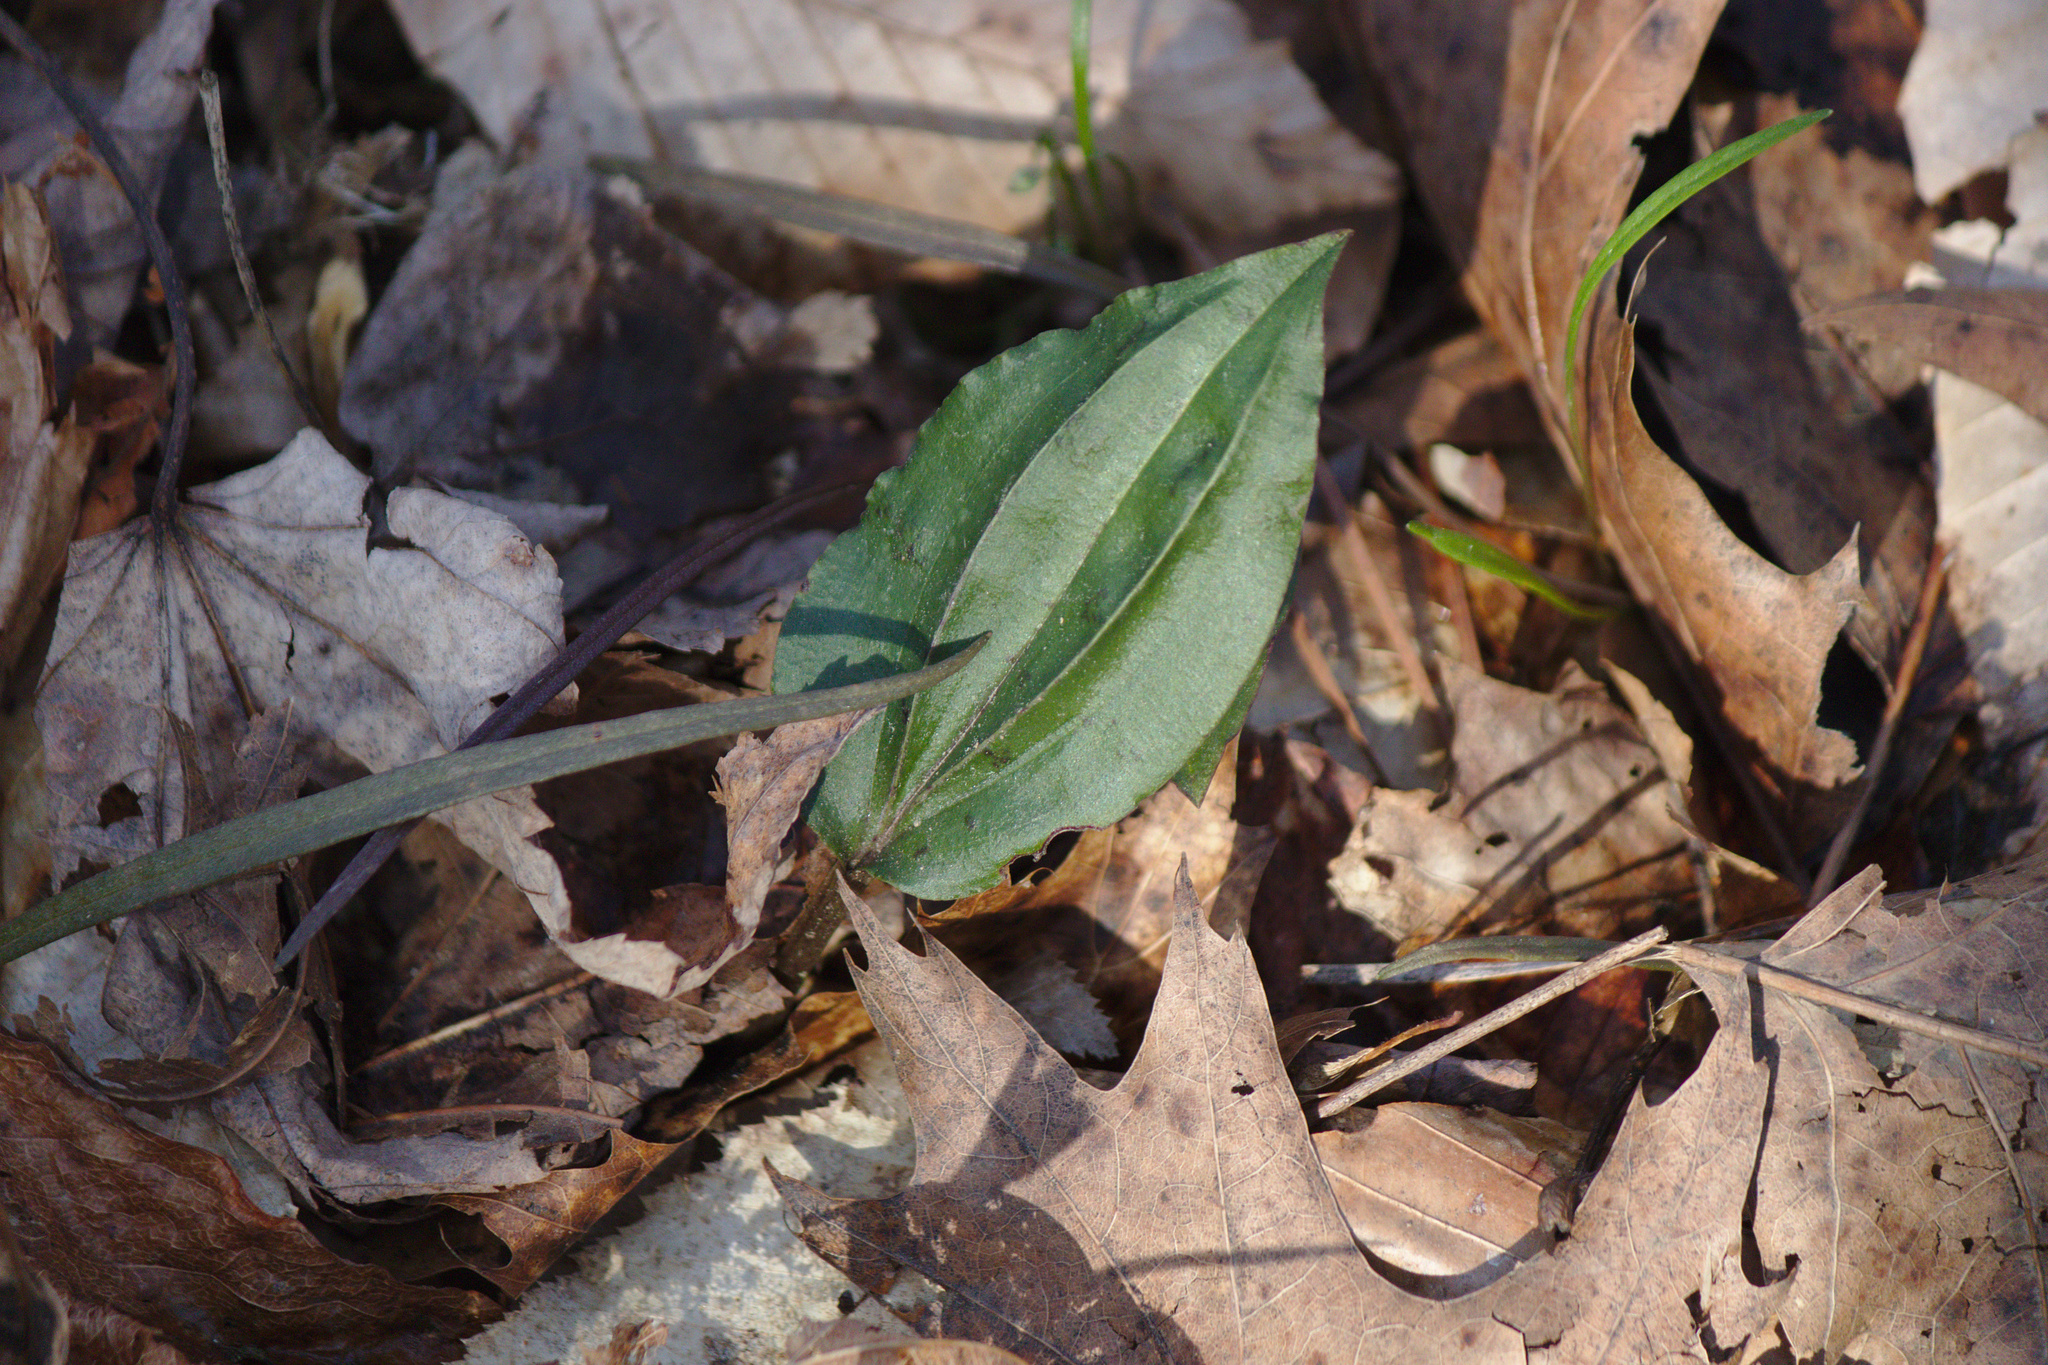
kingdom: Plantae
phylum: Tracheophyta
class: Liliopsida
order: Asparagales
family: Orchidaceae
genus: Tipularia
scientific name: Tipularia discolor
